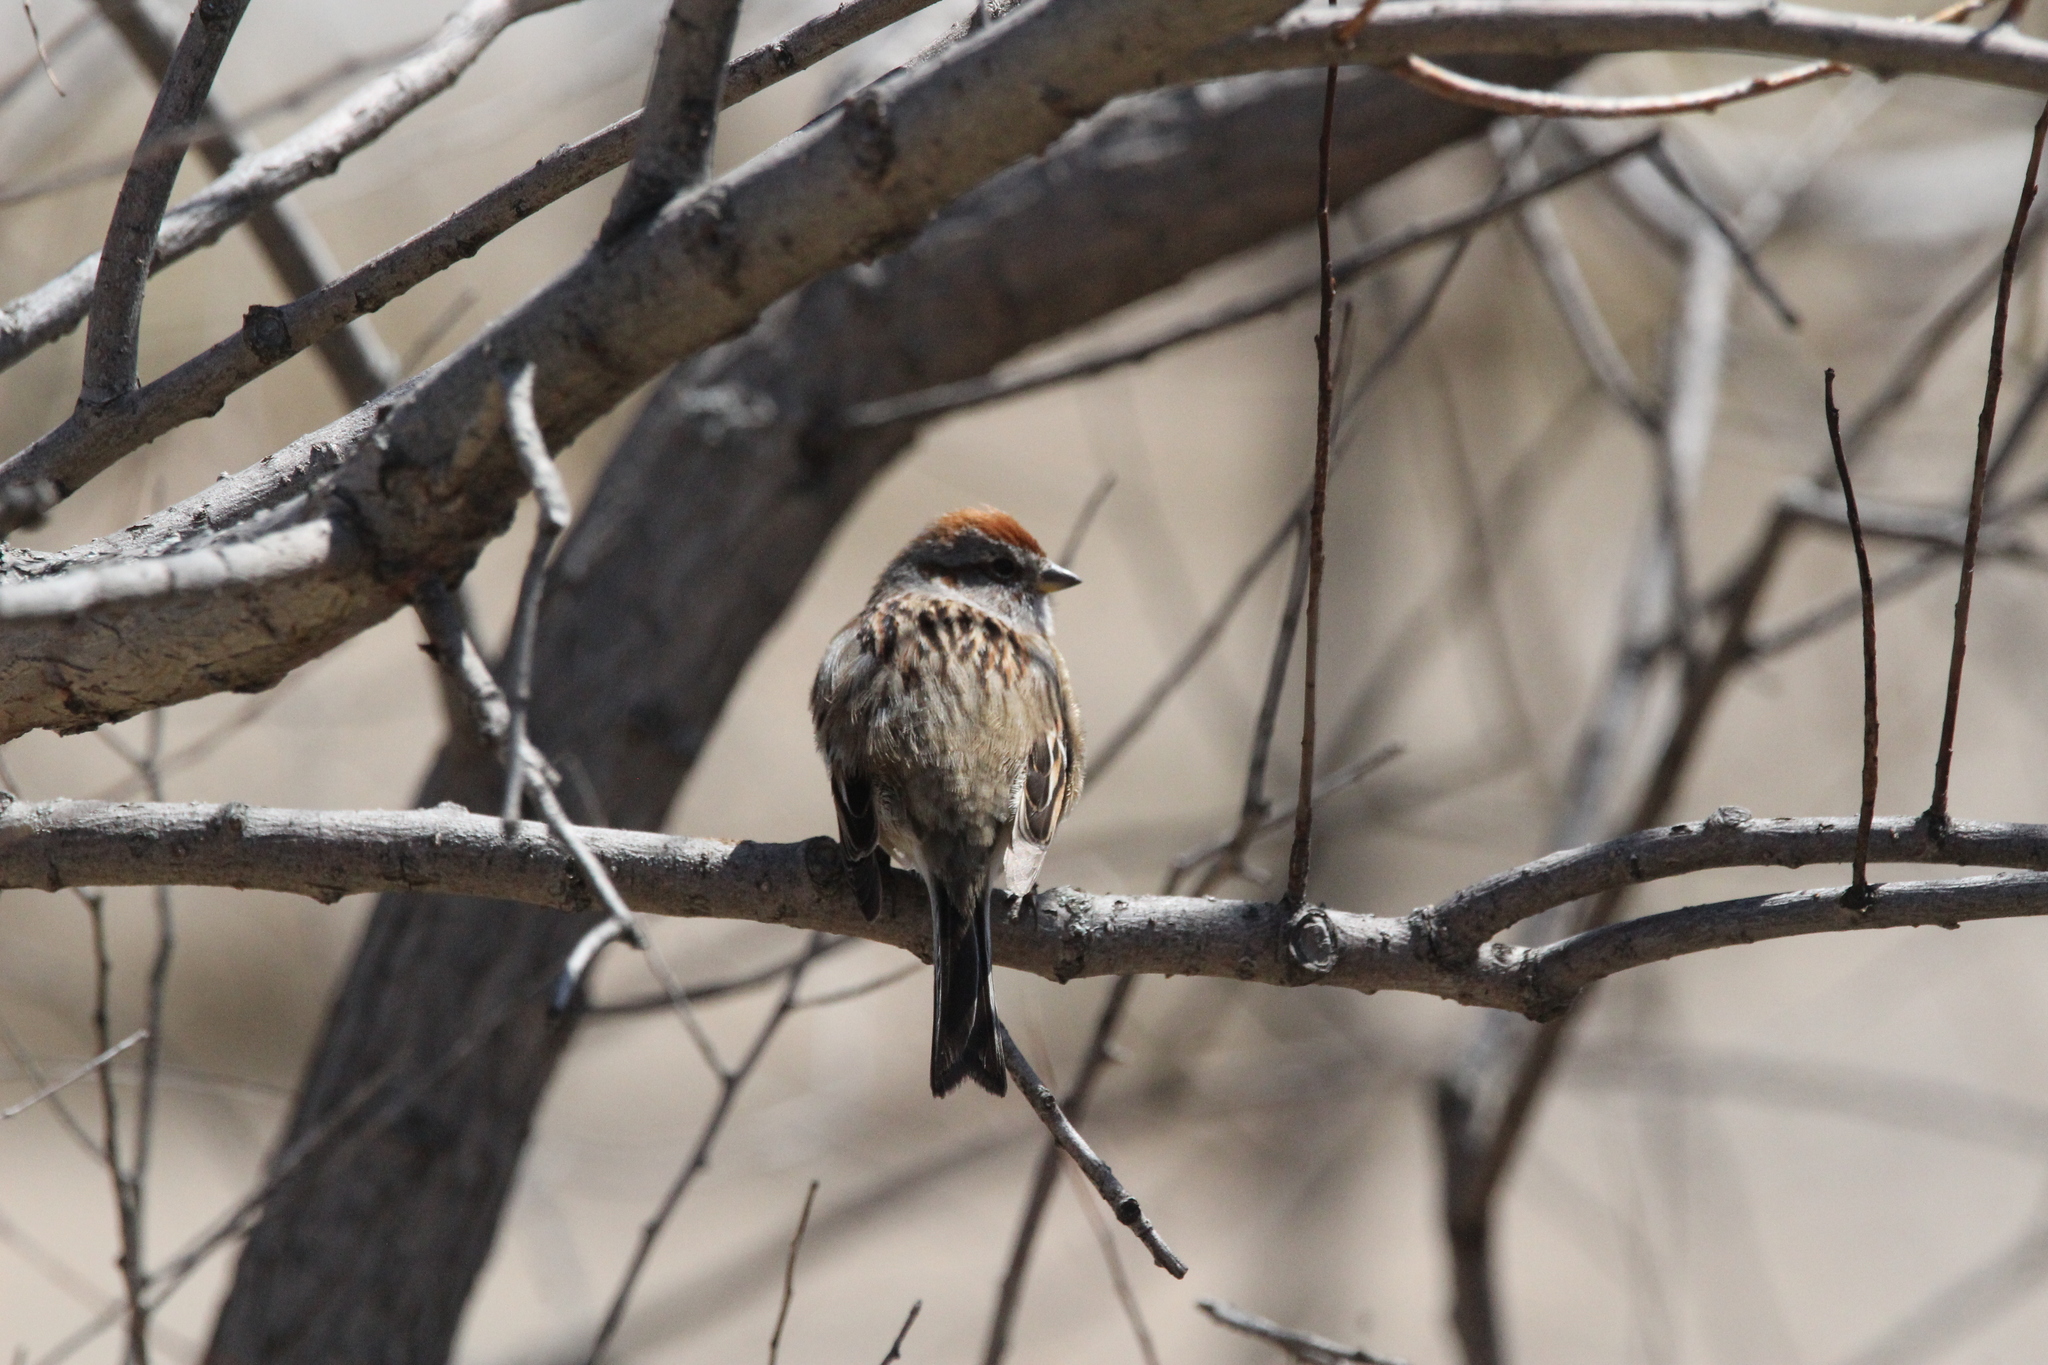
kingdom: Animalia
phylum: Chordata
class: Aves
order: Passeriformes
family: Passerellidae
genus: Spizella
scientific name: Spizella passerina
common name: Chipping sparrow
